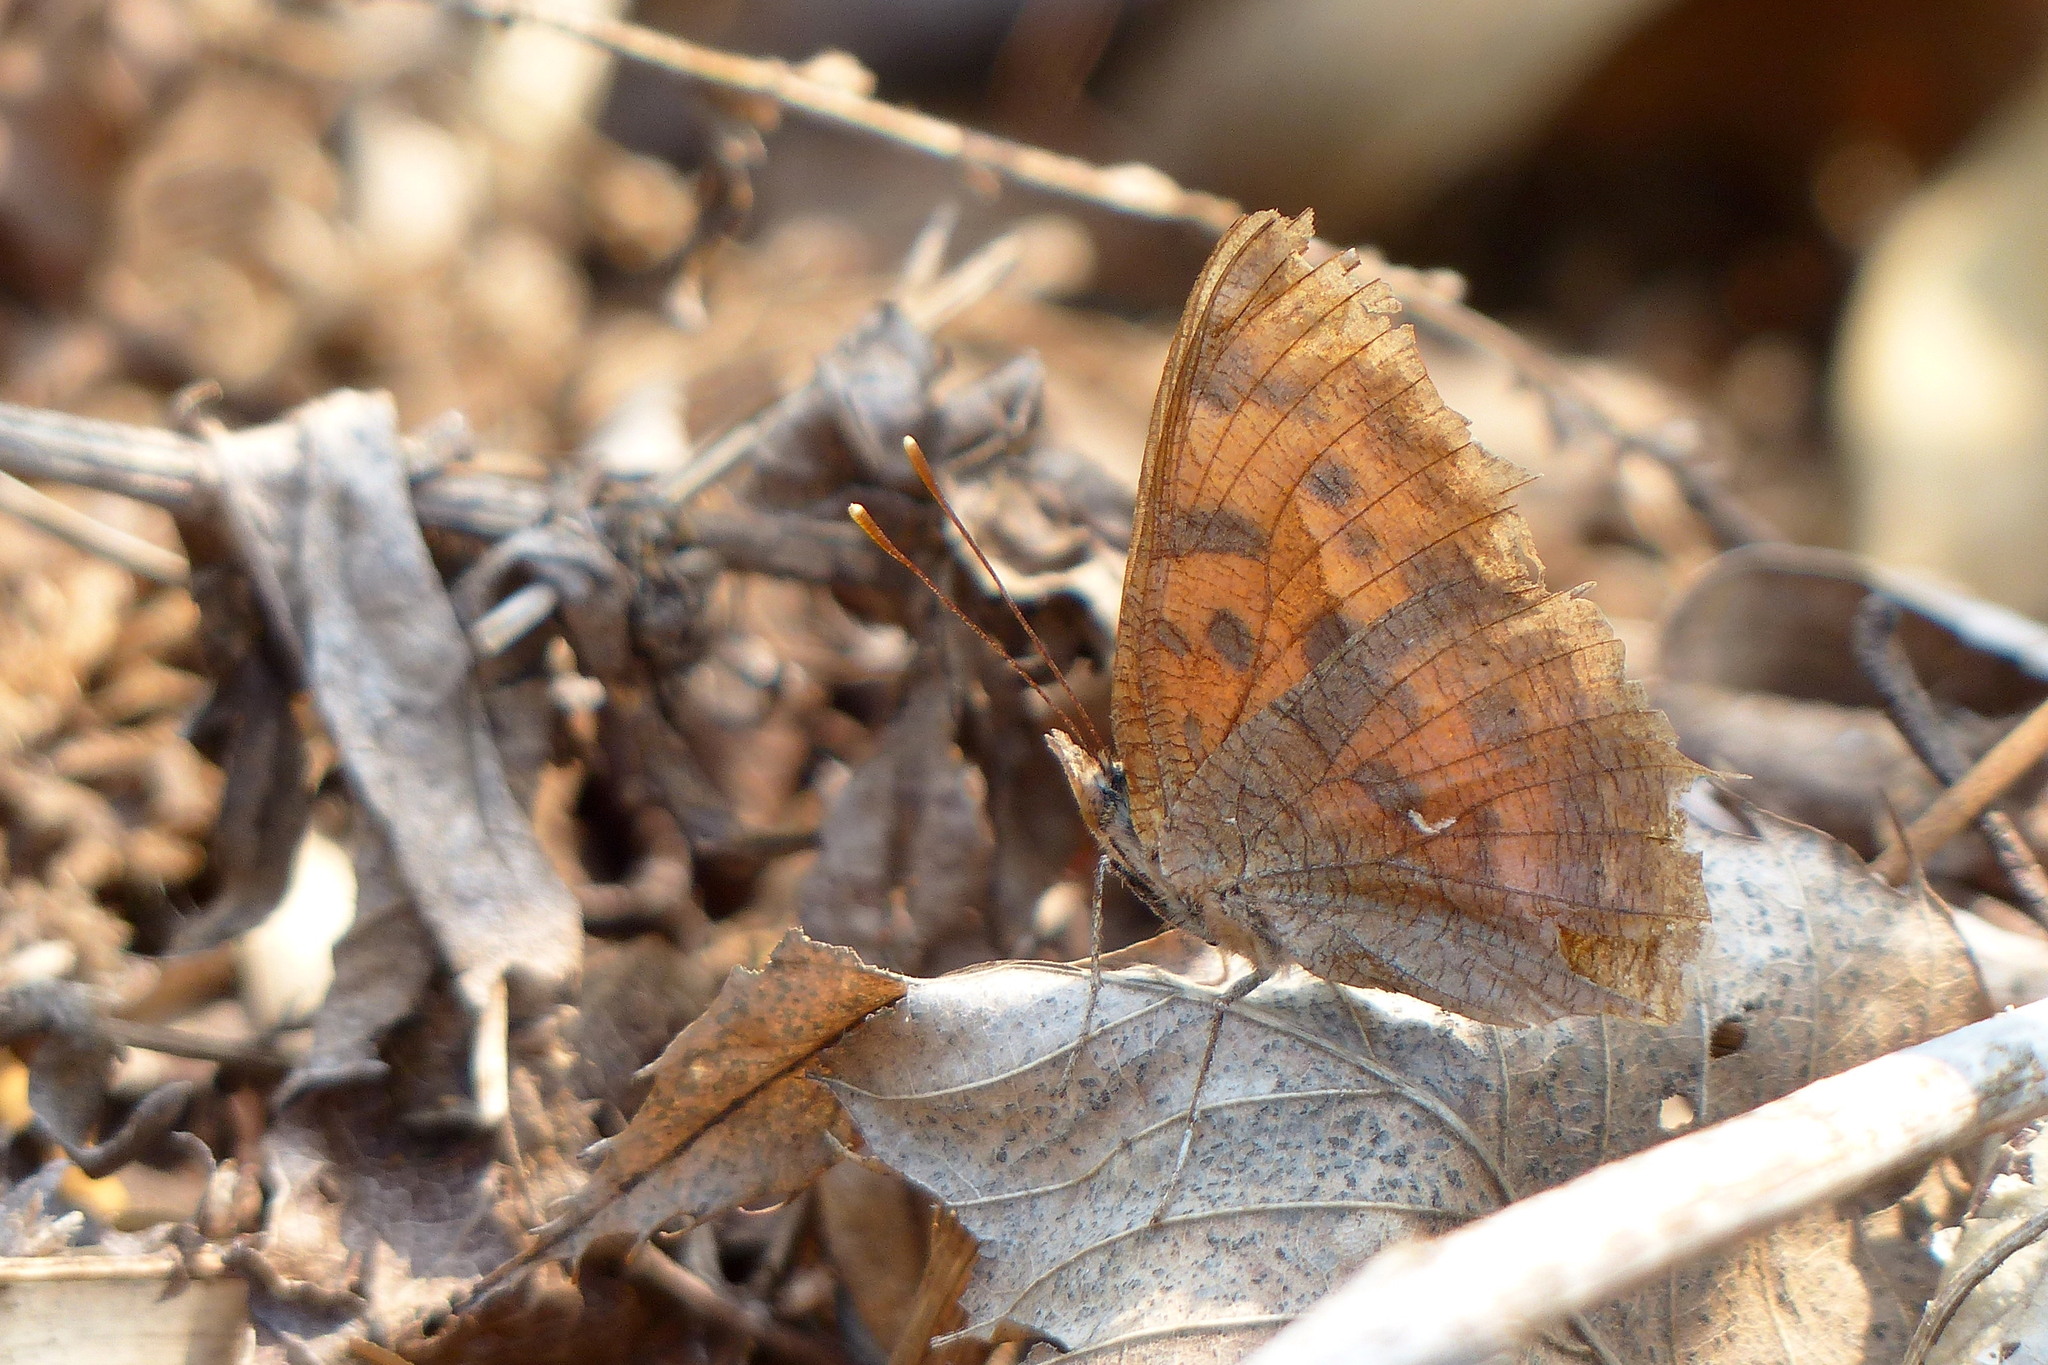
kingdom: Animalia
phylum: Arthropoda
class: Insecta
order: Lepidoptera
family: Nymphalidae
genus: Polygonia
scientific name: Polygonia c-aureum
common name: Asian comma
